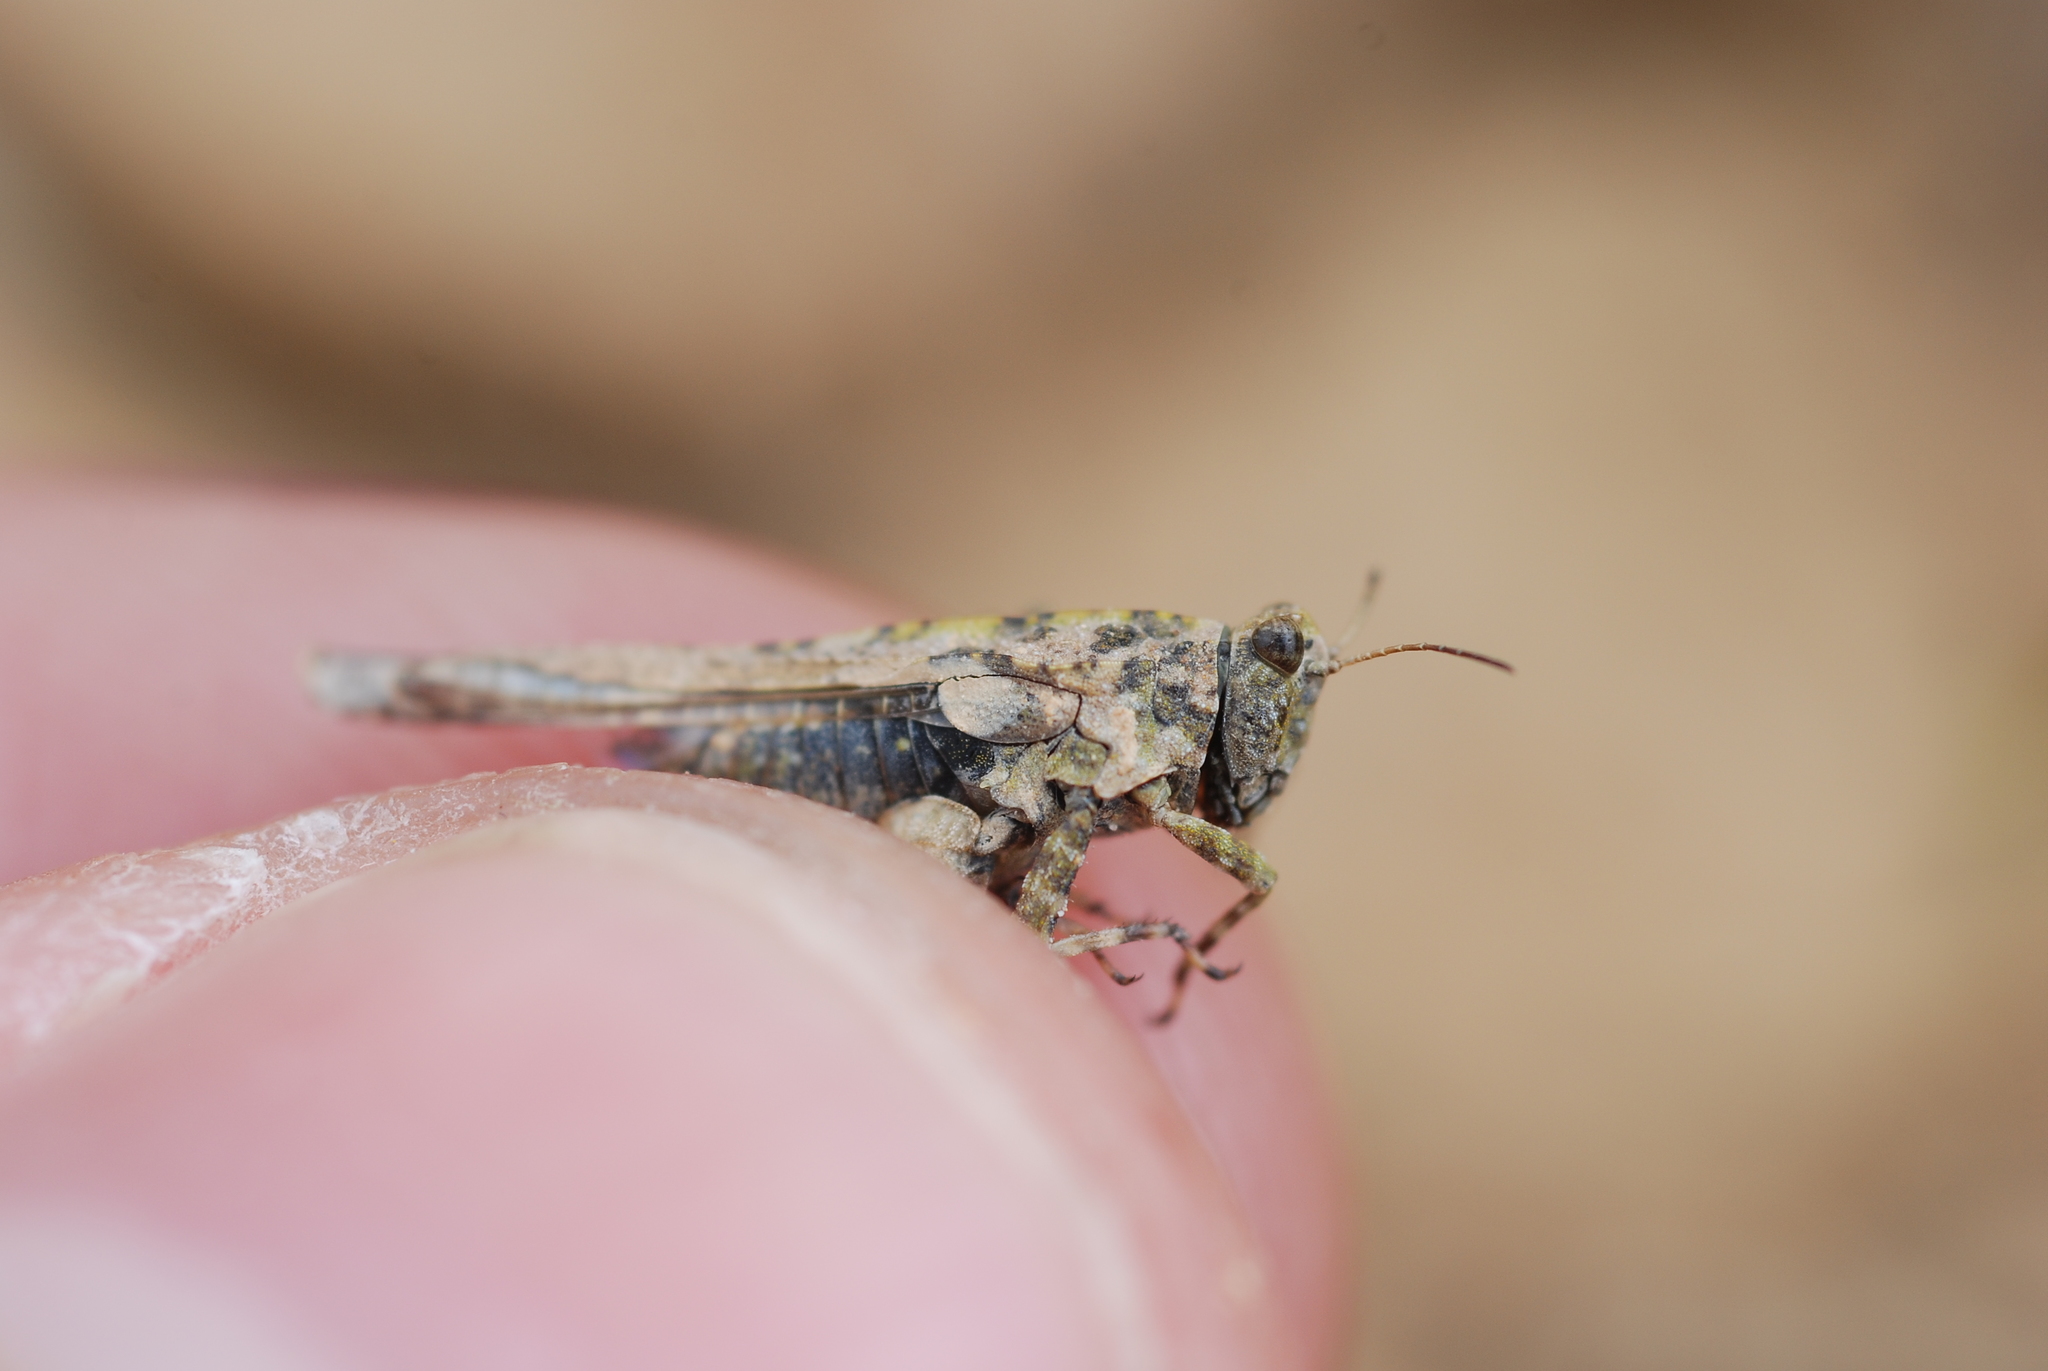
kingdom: Animalia
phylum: Arthropoda
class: Insecta
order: Orthoptera
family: Tetrigidae
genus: Paratettix
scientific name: Paratettix meridionalis
